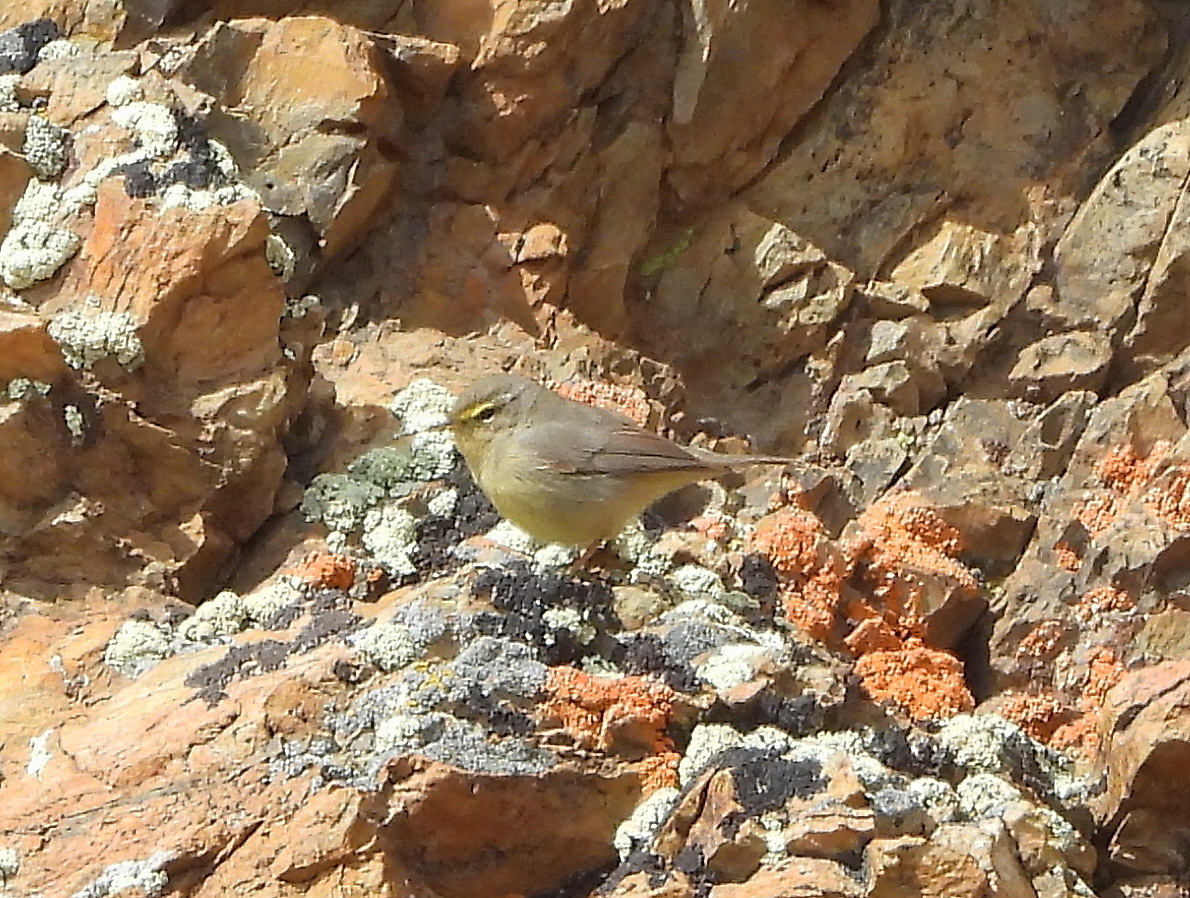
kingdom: Animalia
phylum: Chordata
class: Aves
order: Passeriformes
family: Phylloscopidae
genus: Phylloscopus
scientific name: Phylloscopus griseolus
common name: Sulphur-bellied warbler
